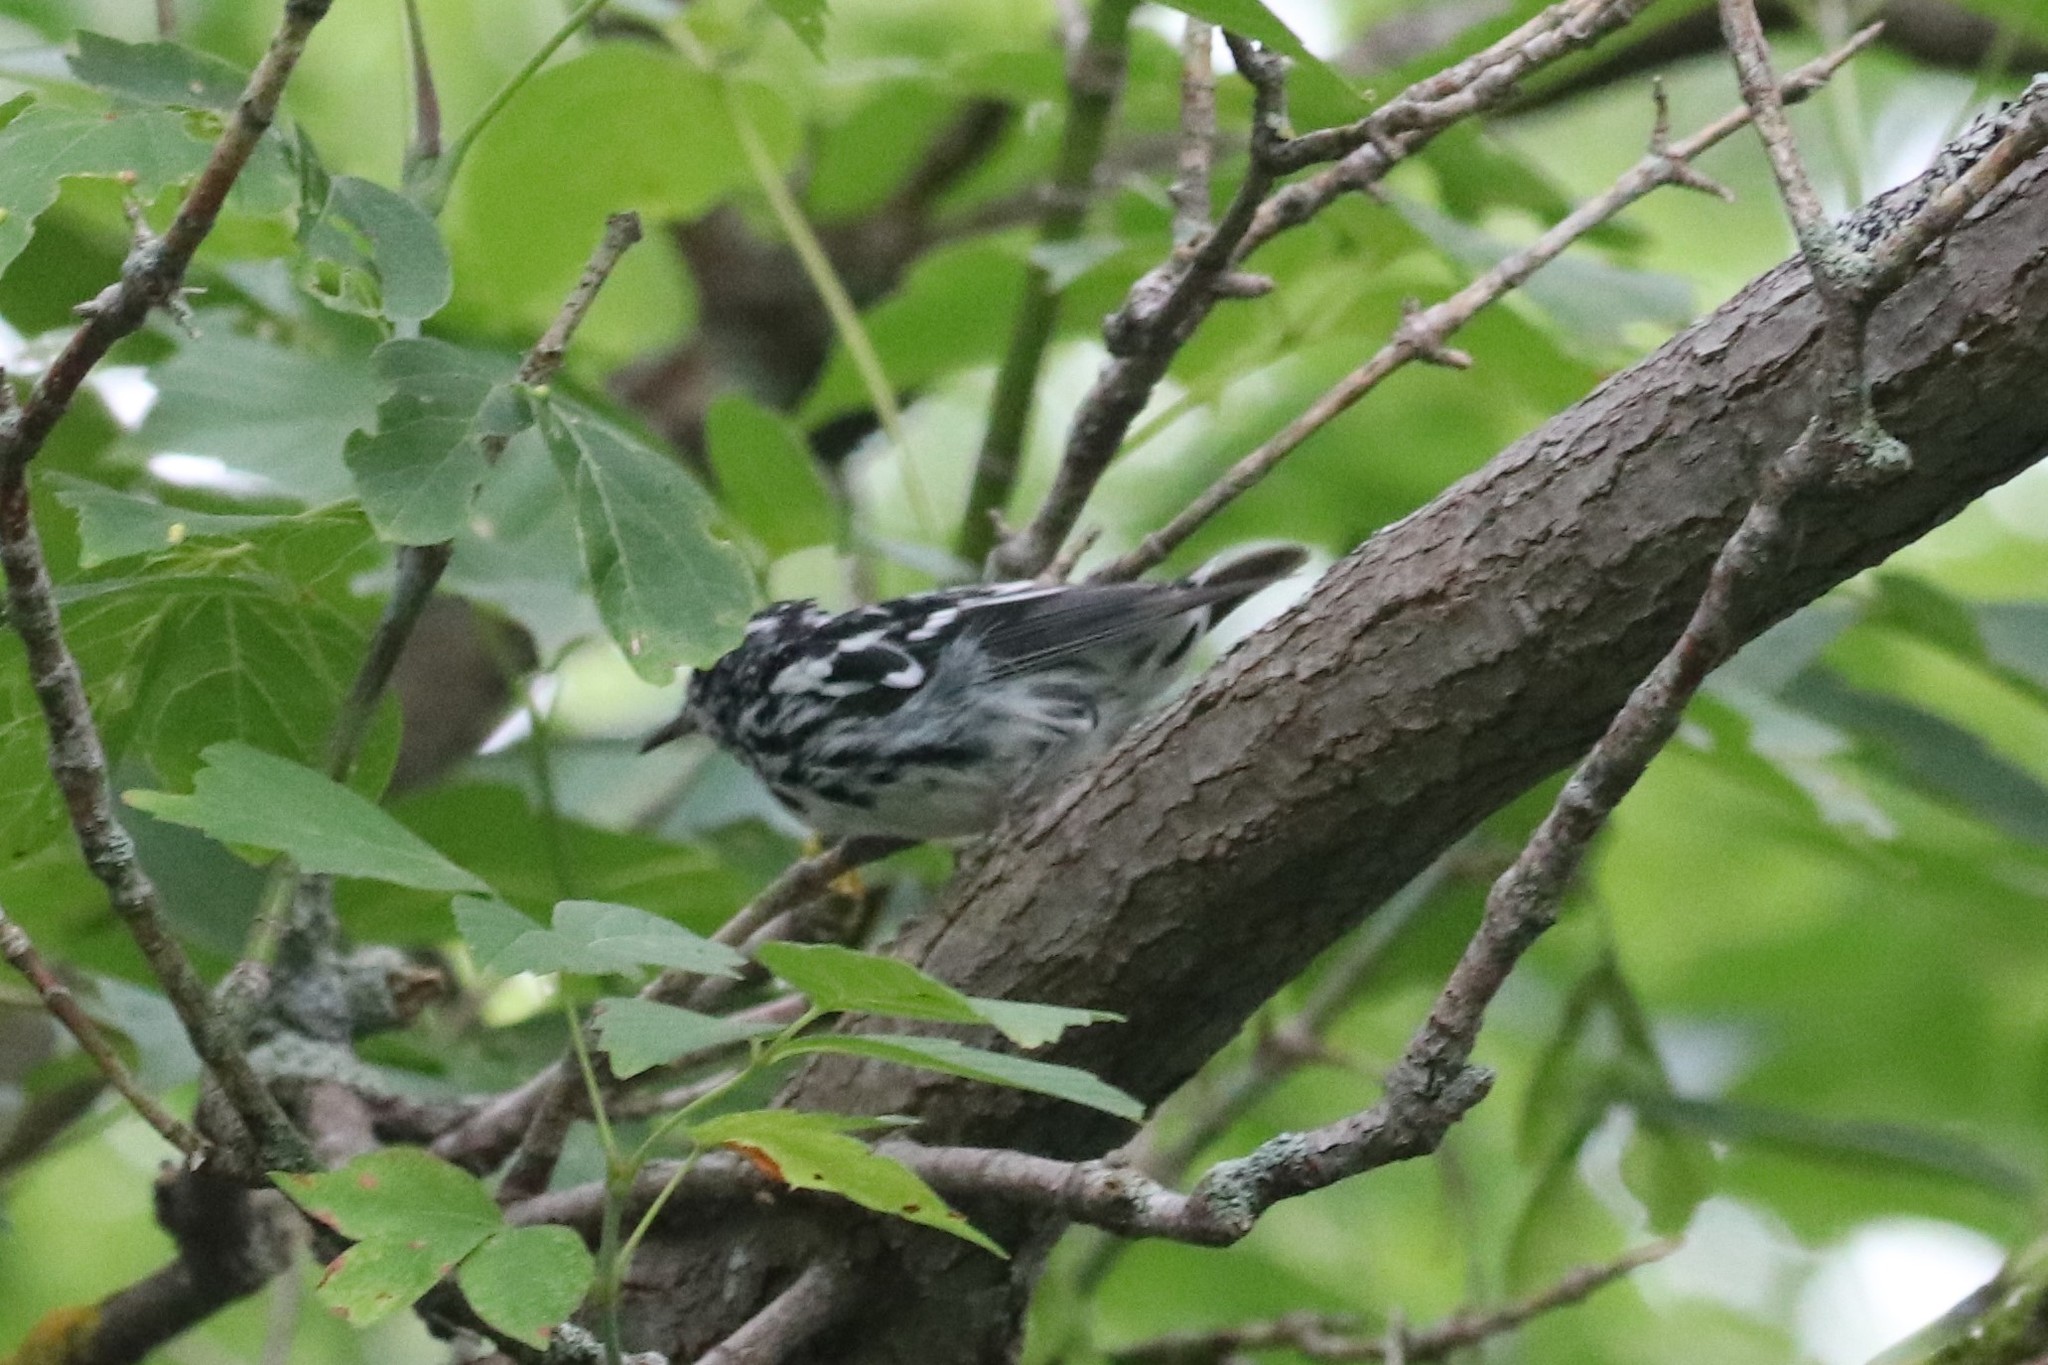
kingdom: Animalia
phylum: Chordata
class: Aves
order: Passeriformes
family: Parulidae
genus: Mniotilta
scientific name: Mniotilta varia
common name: Black-and-white warbler
